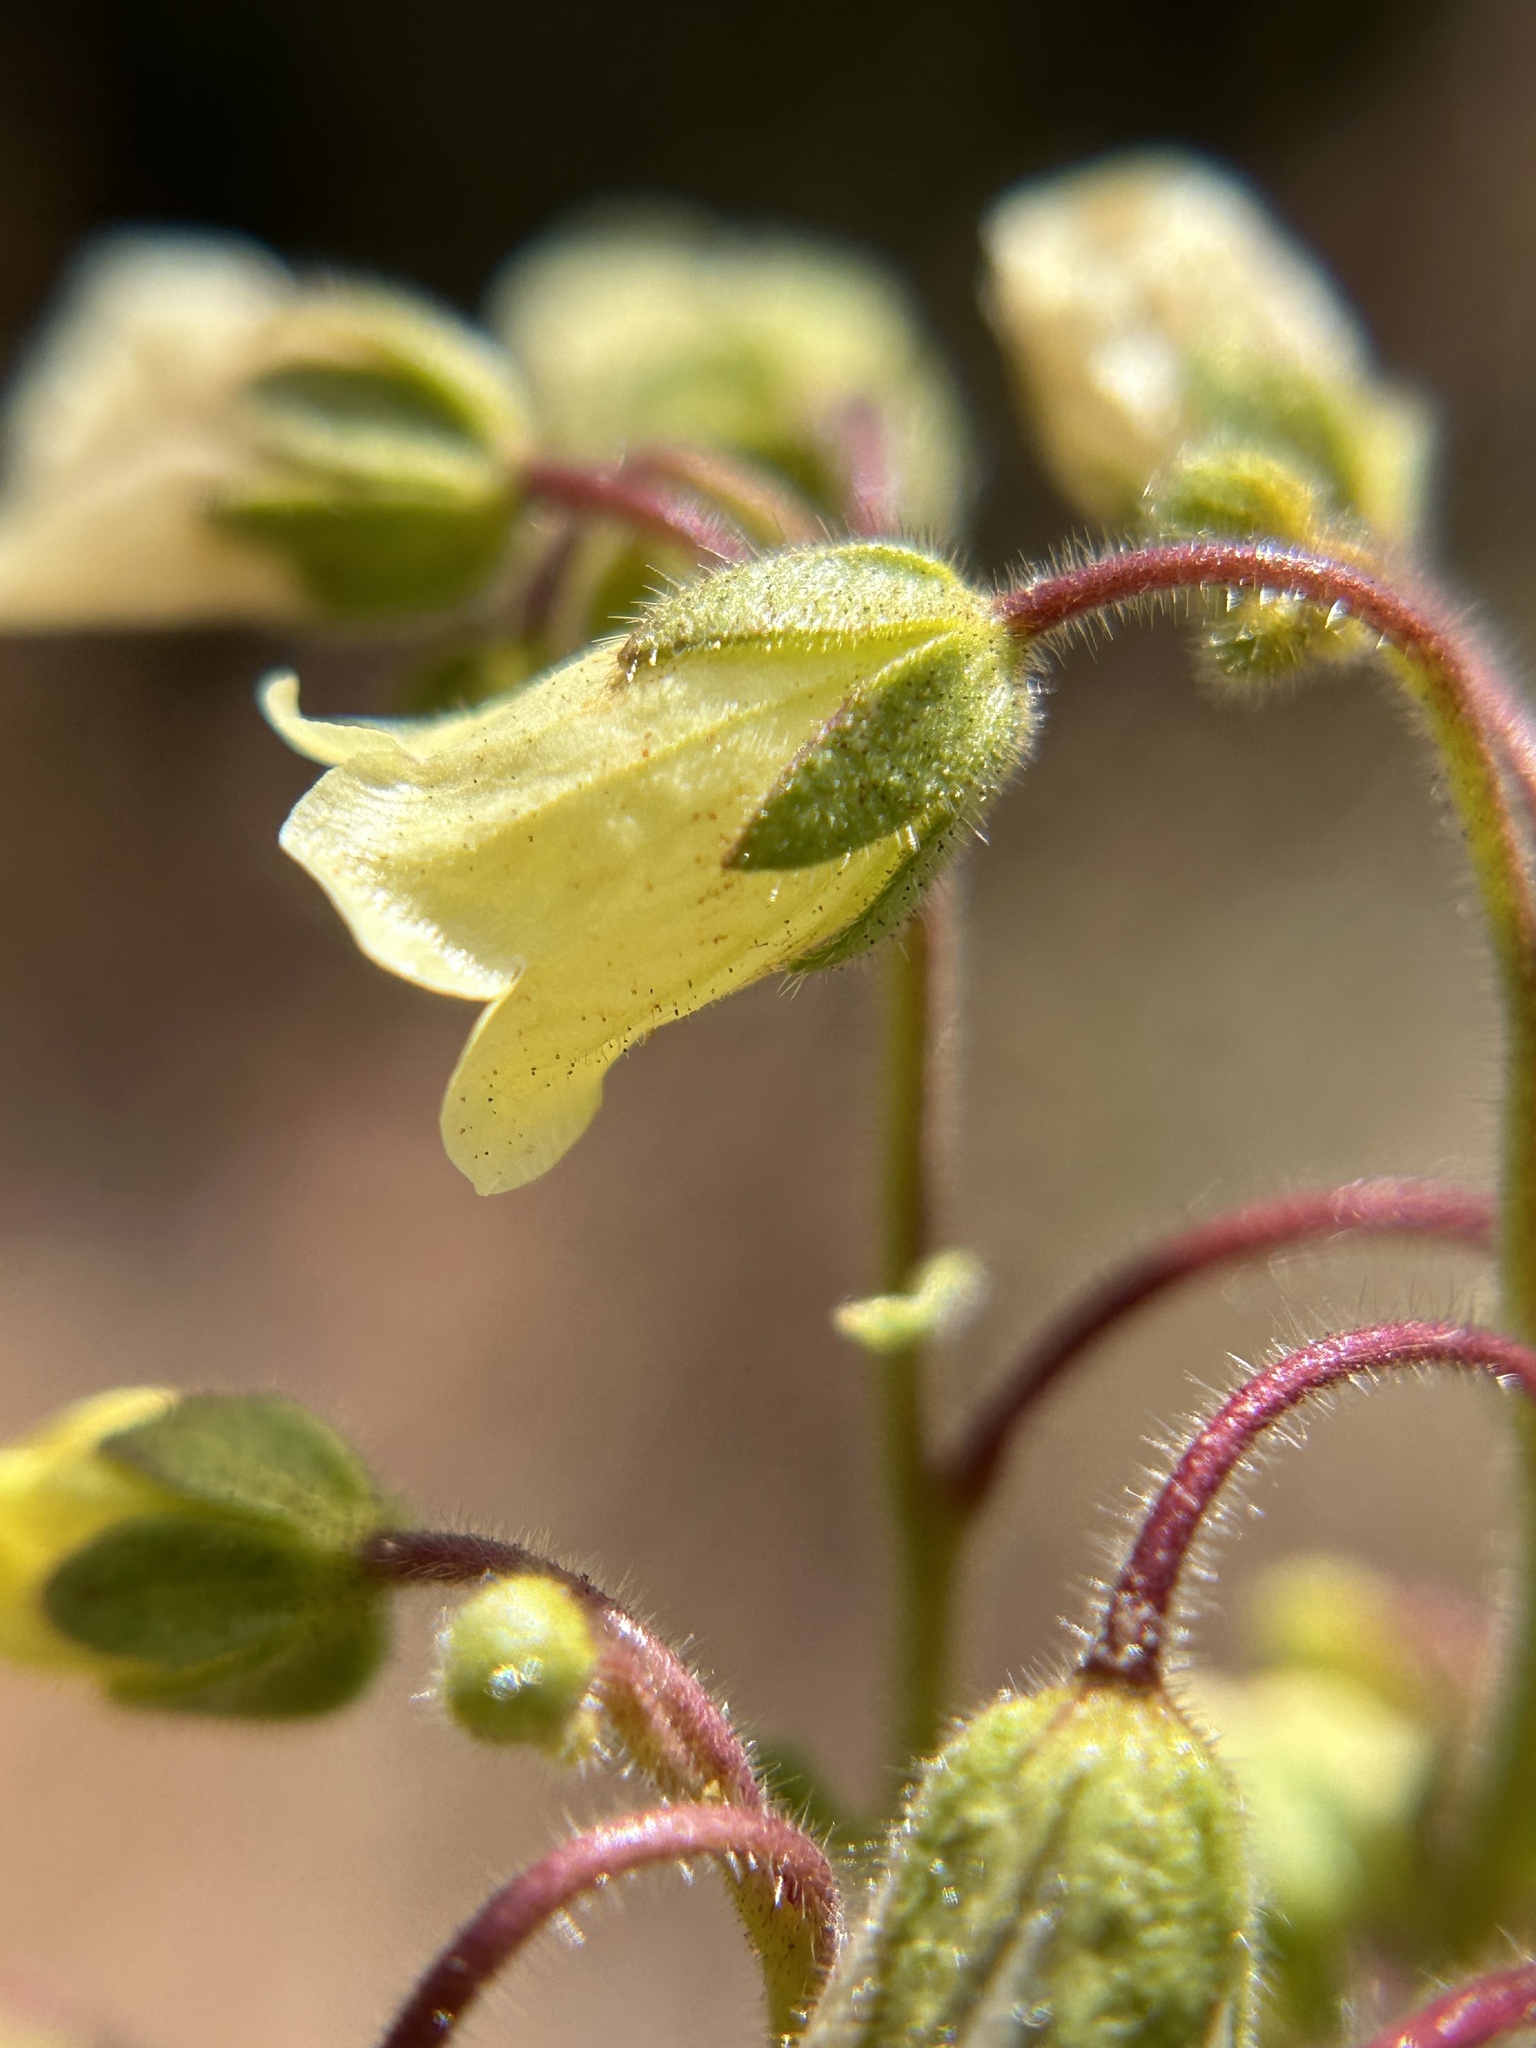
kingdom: Plantae
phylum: Tracheophyta
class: Magnoliopsida
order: Boraginales
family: Hydrophyllaceae
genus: Emmenanthe
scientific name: Emmenanthe penduliflora
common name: Whispering-bells
